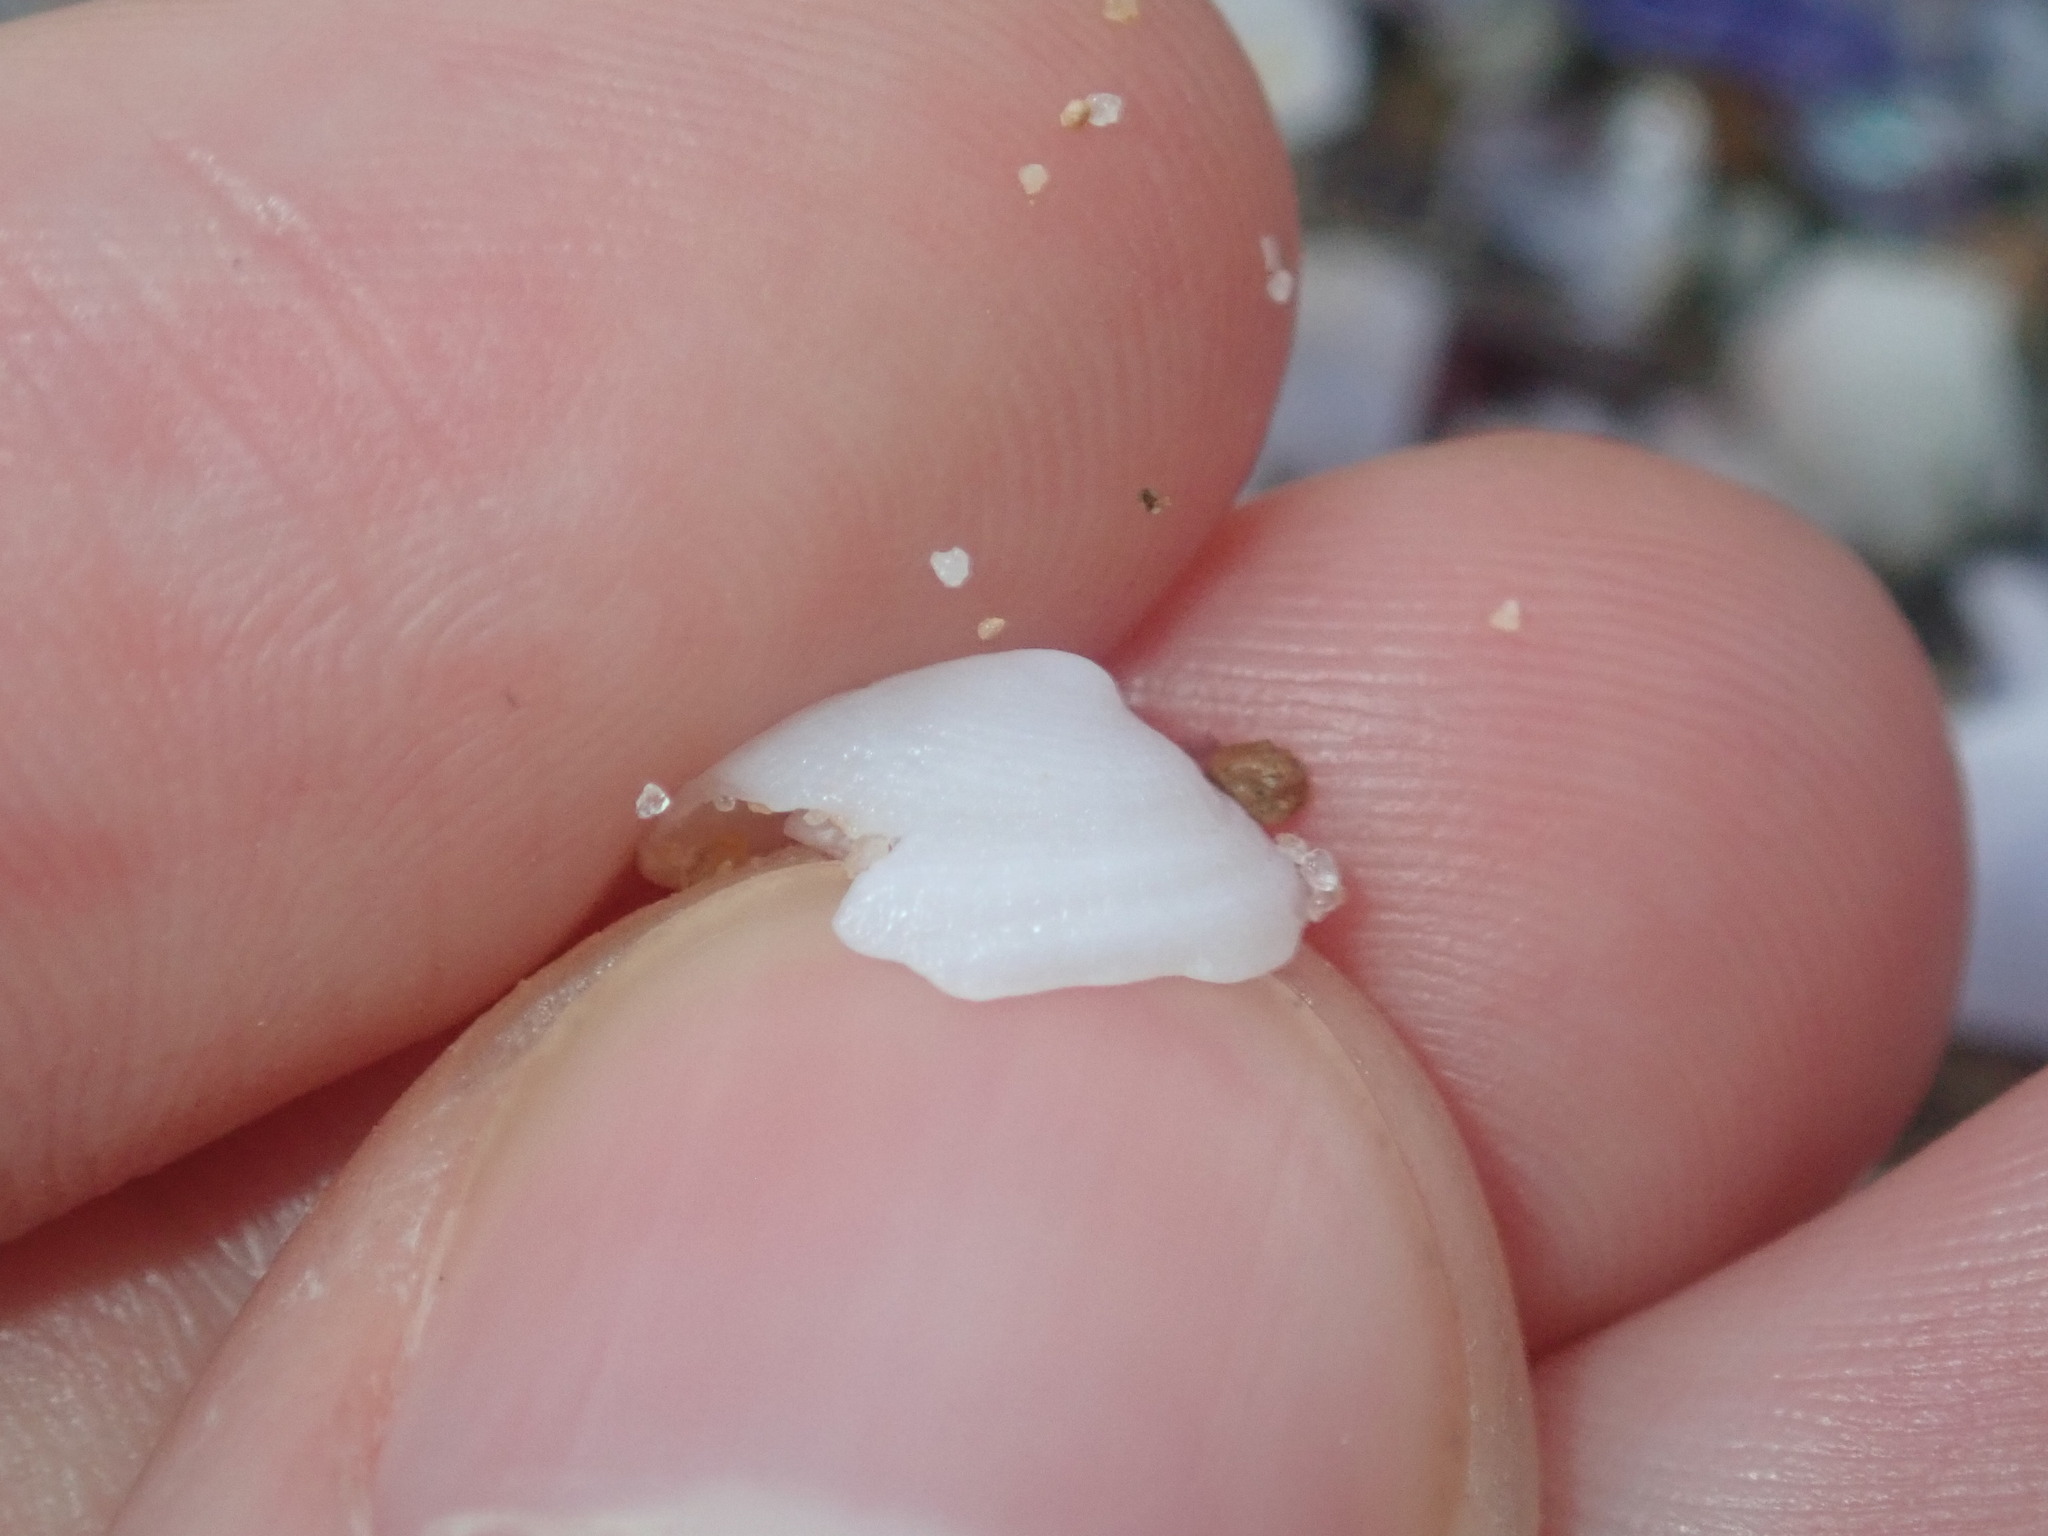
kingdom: Animalia
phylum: Mollusca
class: Gastropoda
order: Lepetellida
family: Fissurellidae
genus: Tugali
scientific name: Tugali parmophoidea
